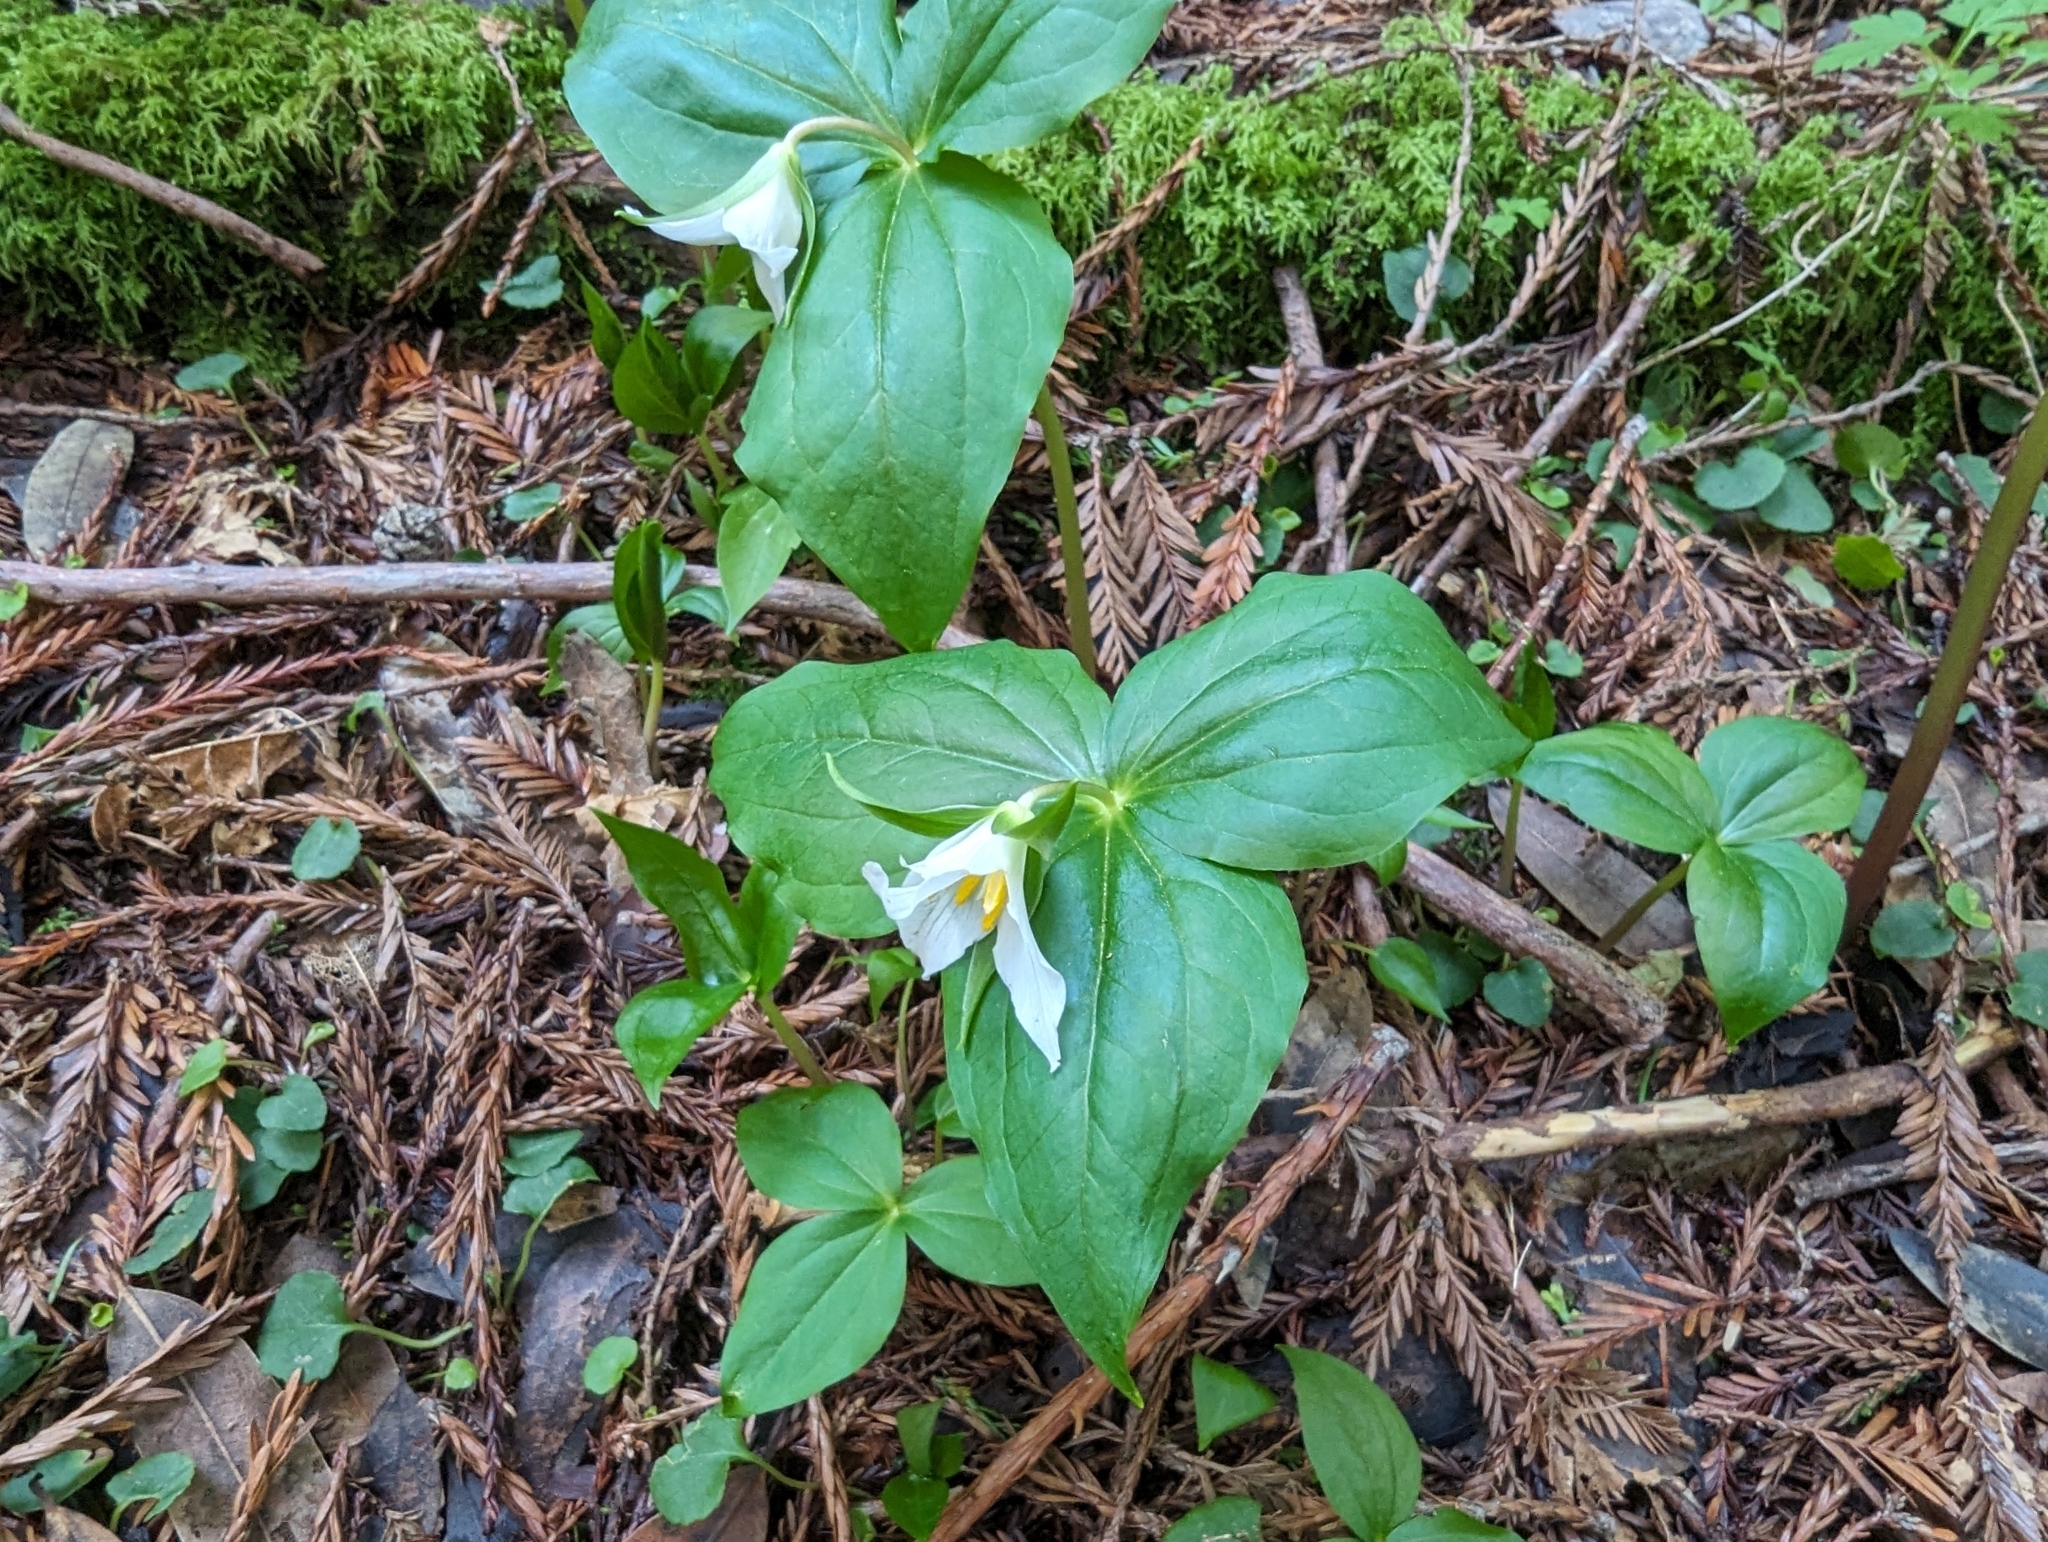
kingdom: Plantae
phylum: Tracheophyta
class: Liliopsida
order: Liliales
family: Melanthiaceae
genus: Trillium
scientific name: Trillium ovatum
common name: Pacific trillium
